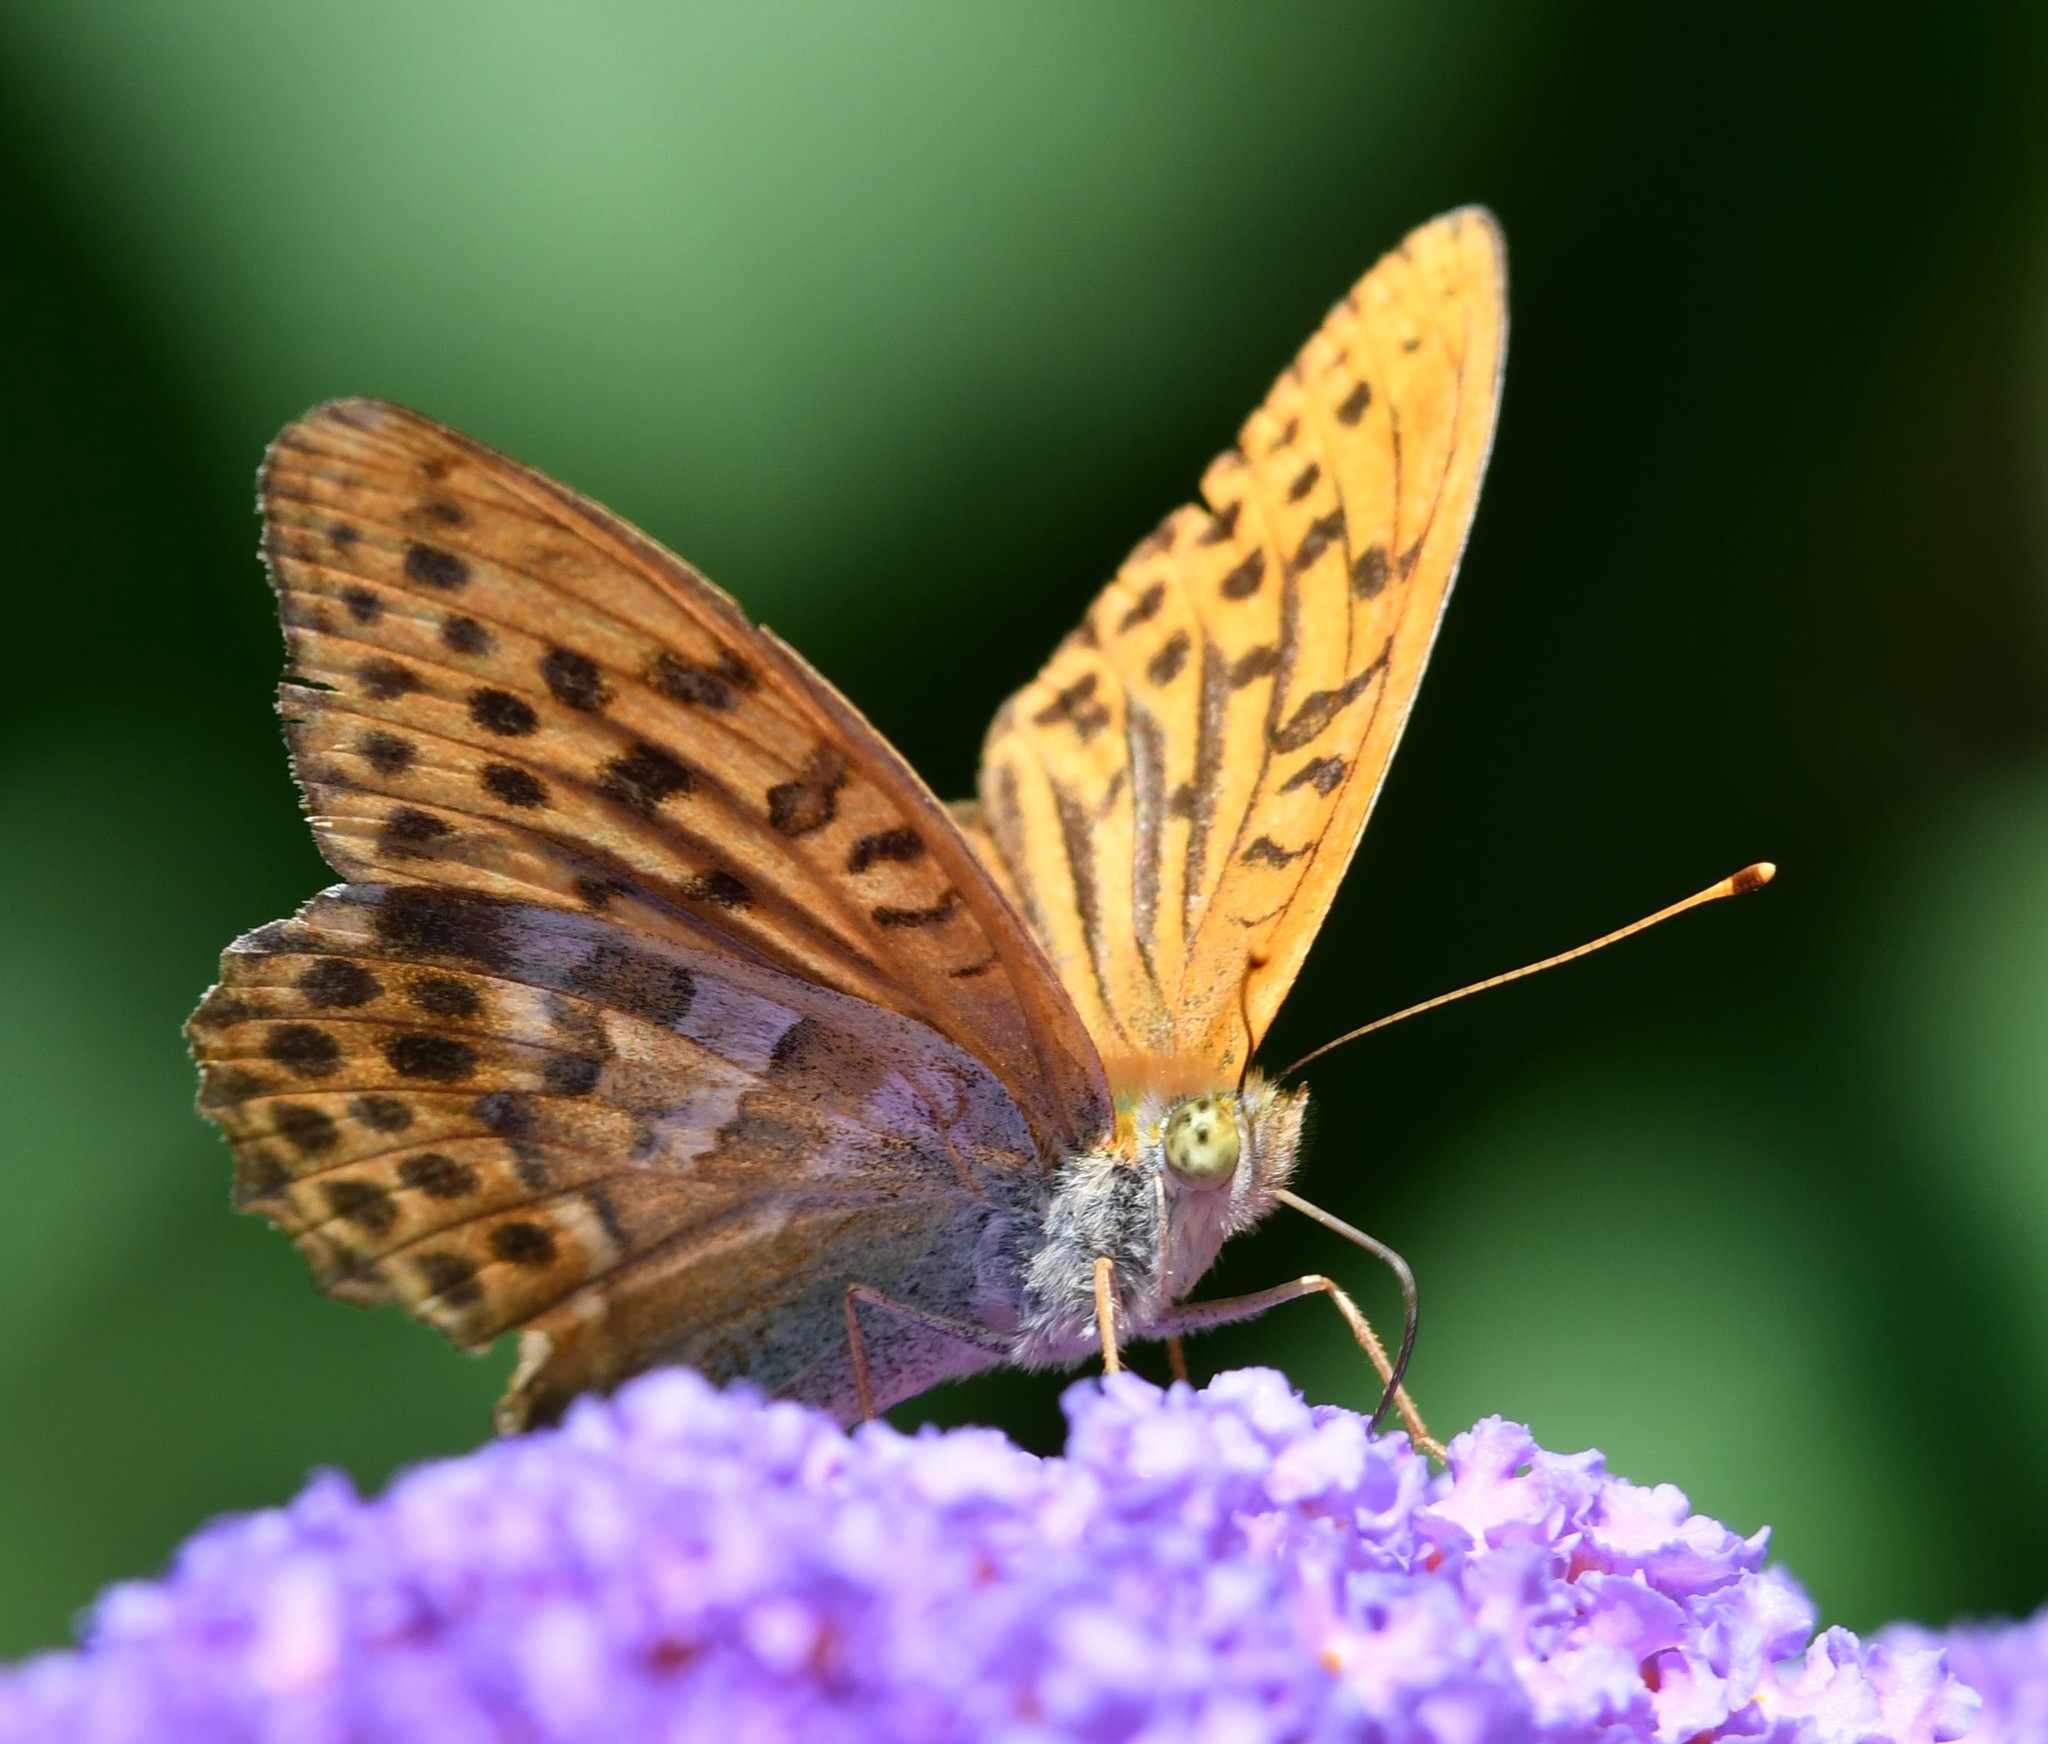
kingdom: Animalia
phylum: Arthropoda
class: Insecta
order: Lepidoptera
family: Nymphalidae
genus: Argynnis
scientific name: Argynnis paphia
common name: Silver-washed fritillary
